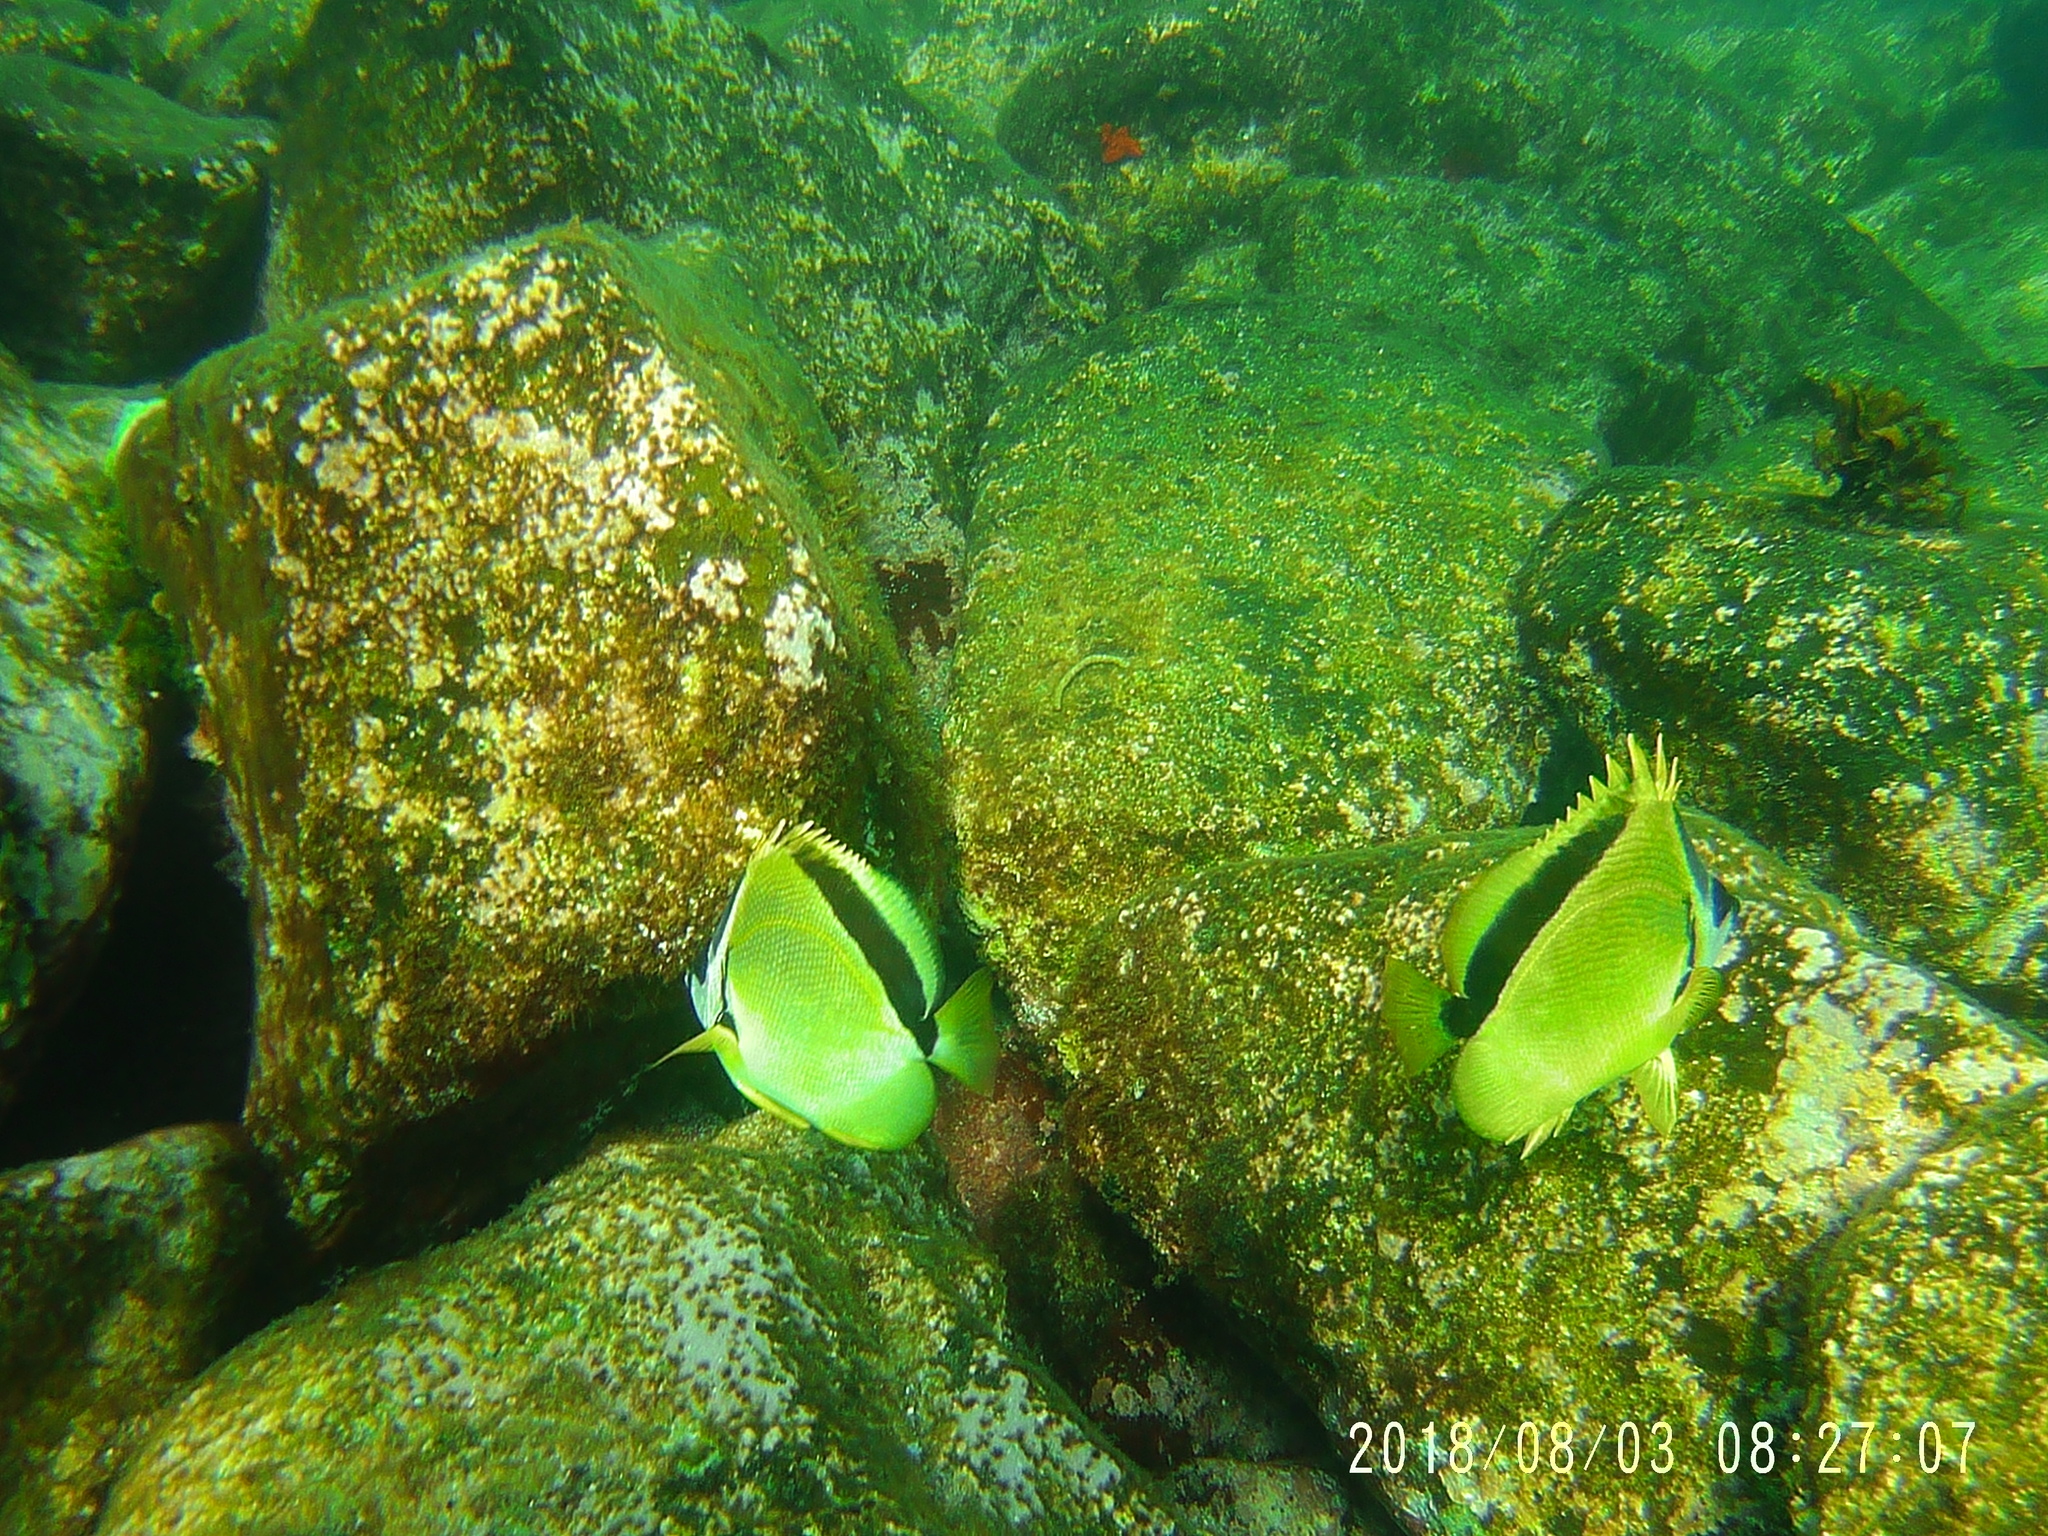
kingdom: Animalia
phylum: Chordata
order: Perciformes
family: Chaetodontidae
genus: Johnrandallia
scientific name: Johnrandallia nigrirostris
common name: Barberfish
